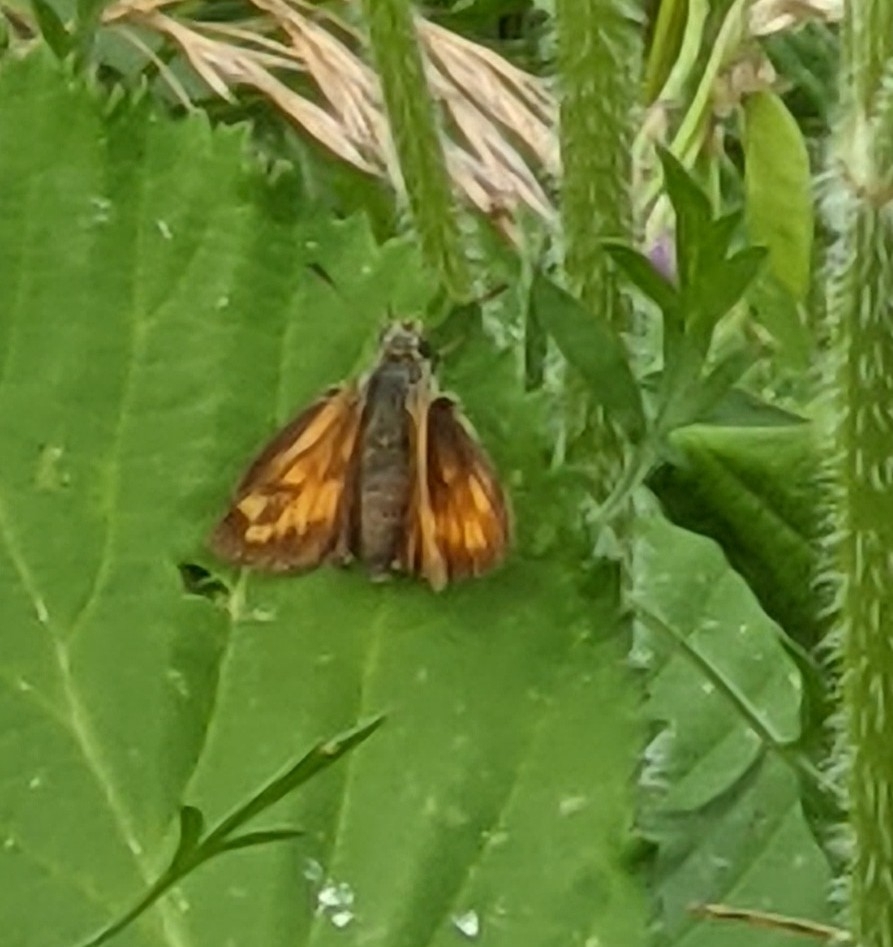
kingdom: Animalia
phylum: Arthropoda
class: Insecta
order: Lepidoptera
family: Hesperiidae
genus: Ochlodes
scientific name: Ochlodes venata
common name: Large skipper
